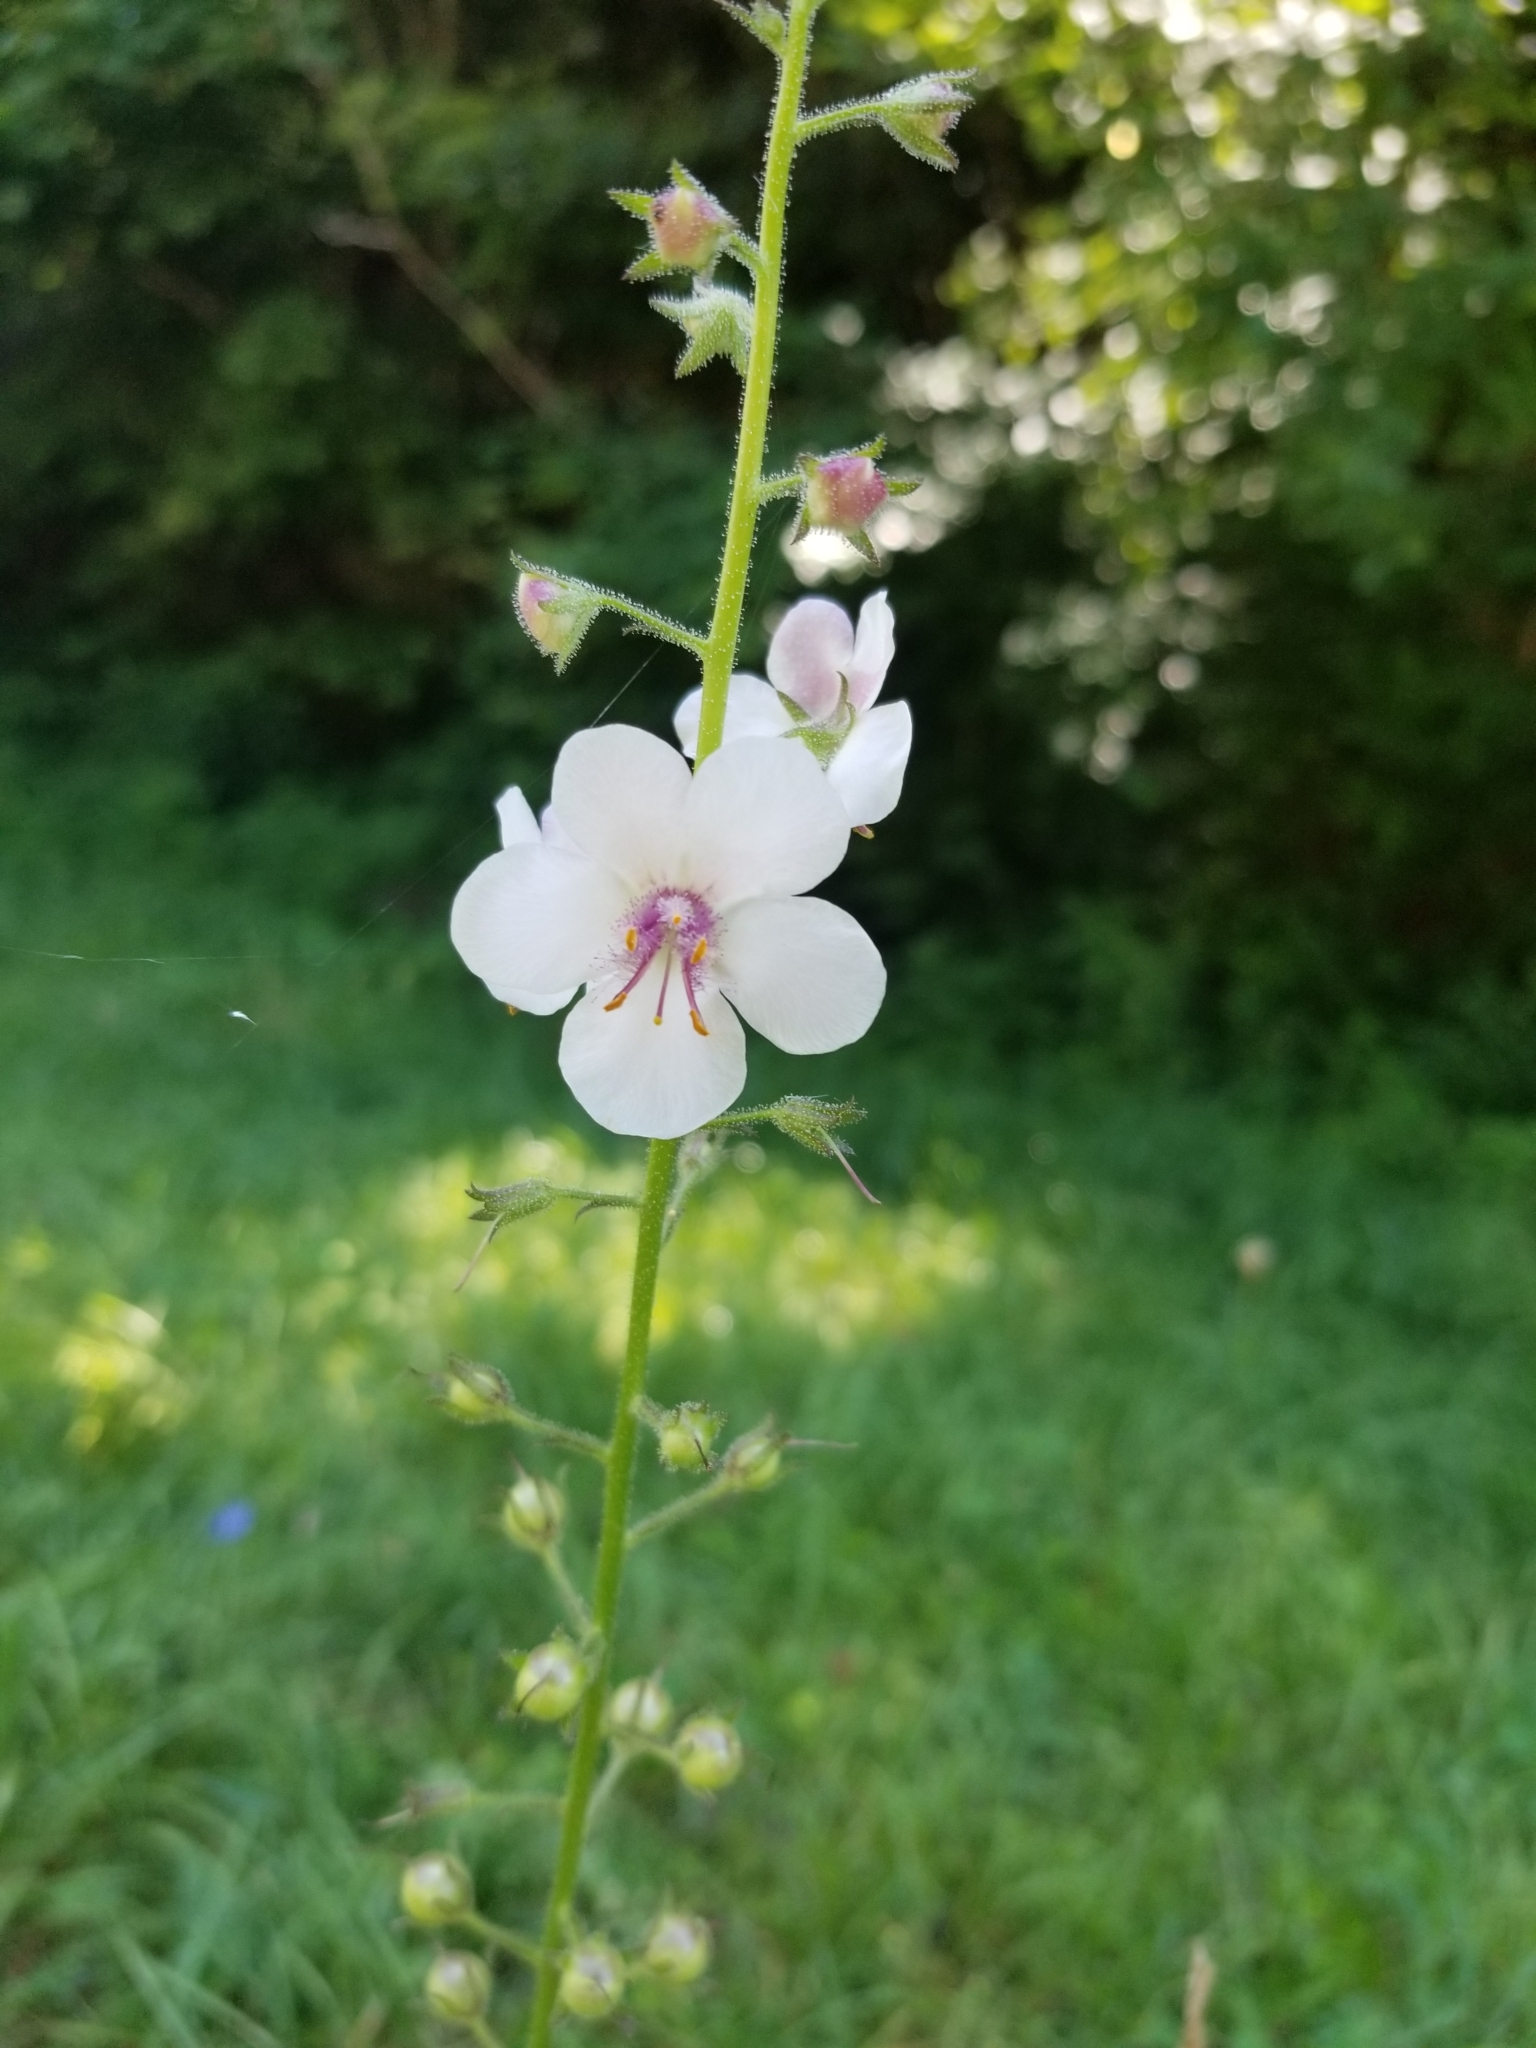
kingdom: Plantae
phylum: Tracheophyta
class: Magnoliopsida
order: Lamiales
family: Scrophulariaceae
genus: Verbascum
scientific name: Verbascum blattaria
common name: Moth mullein
